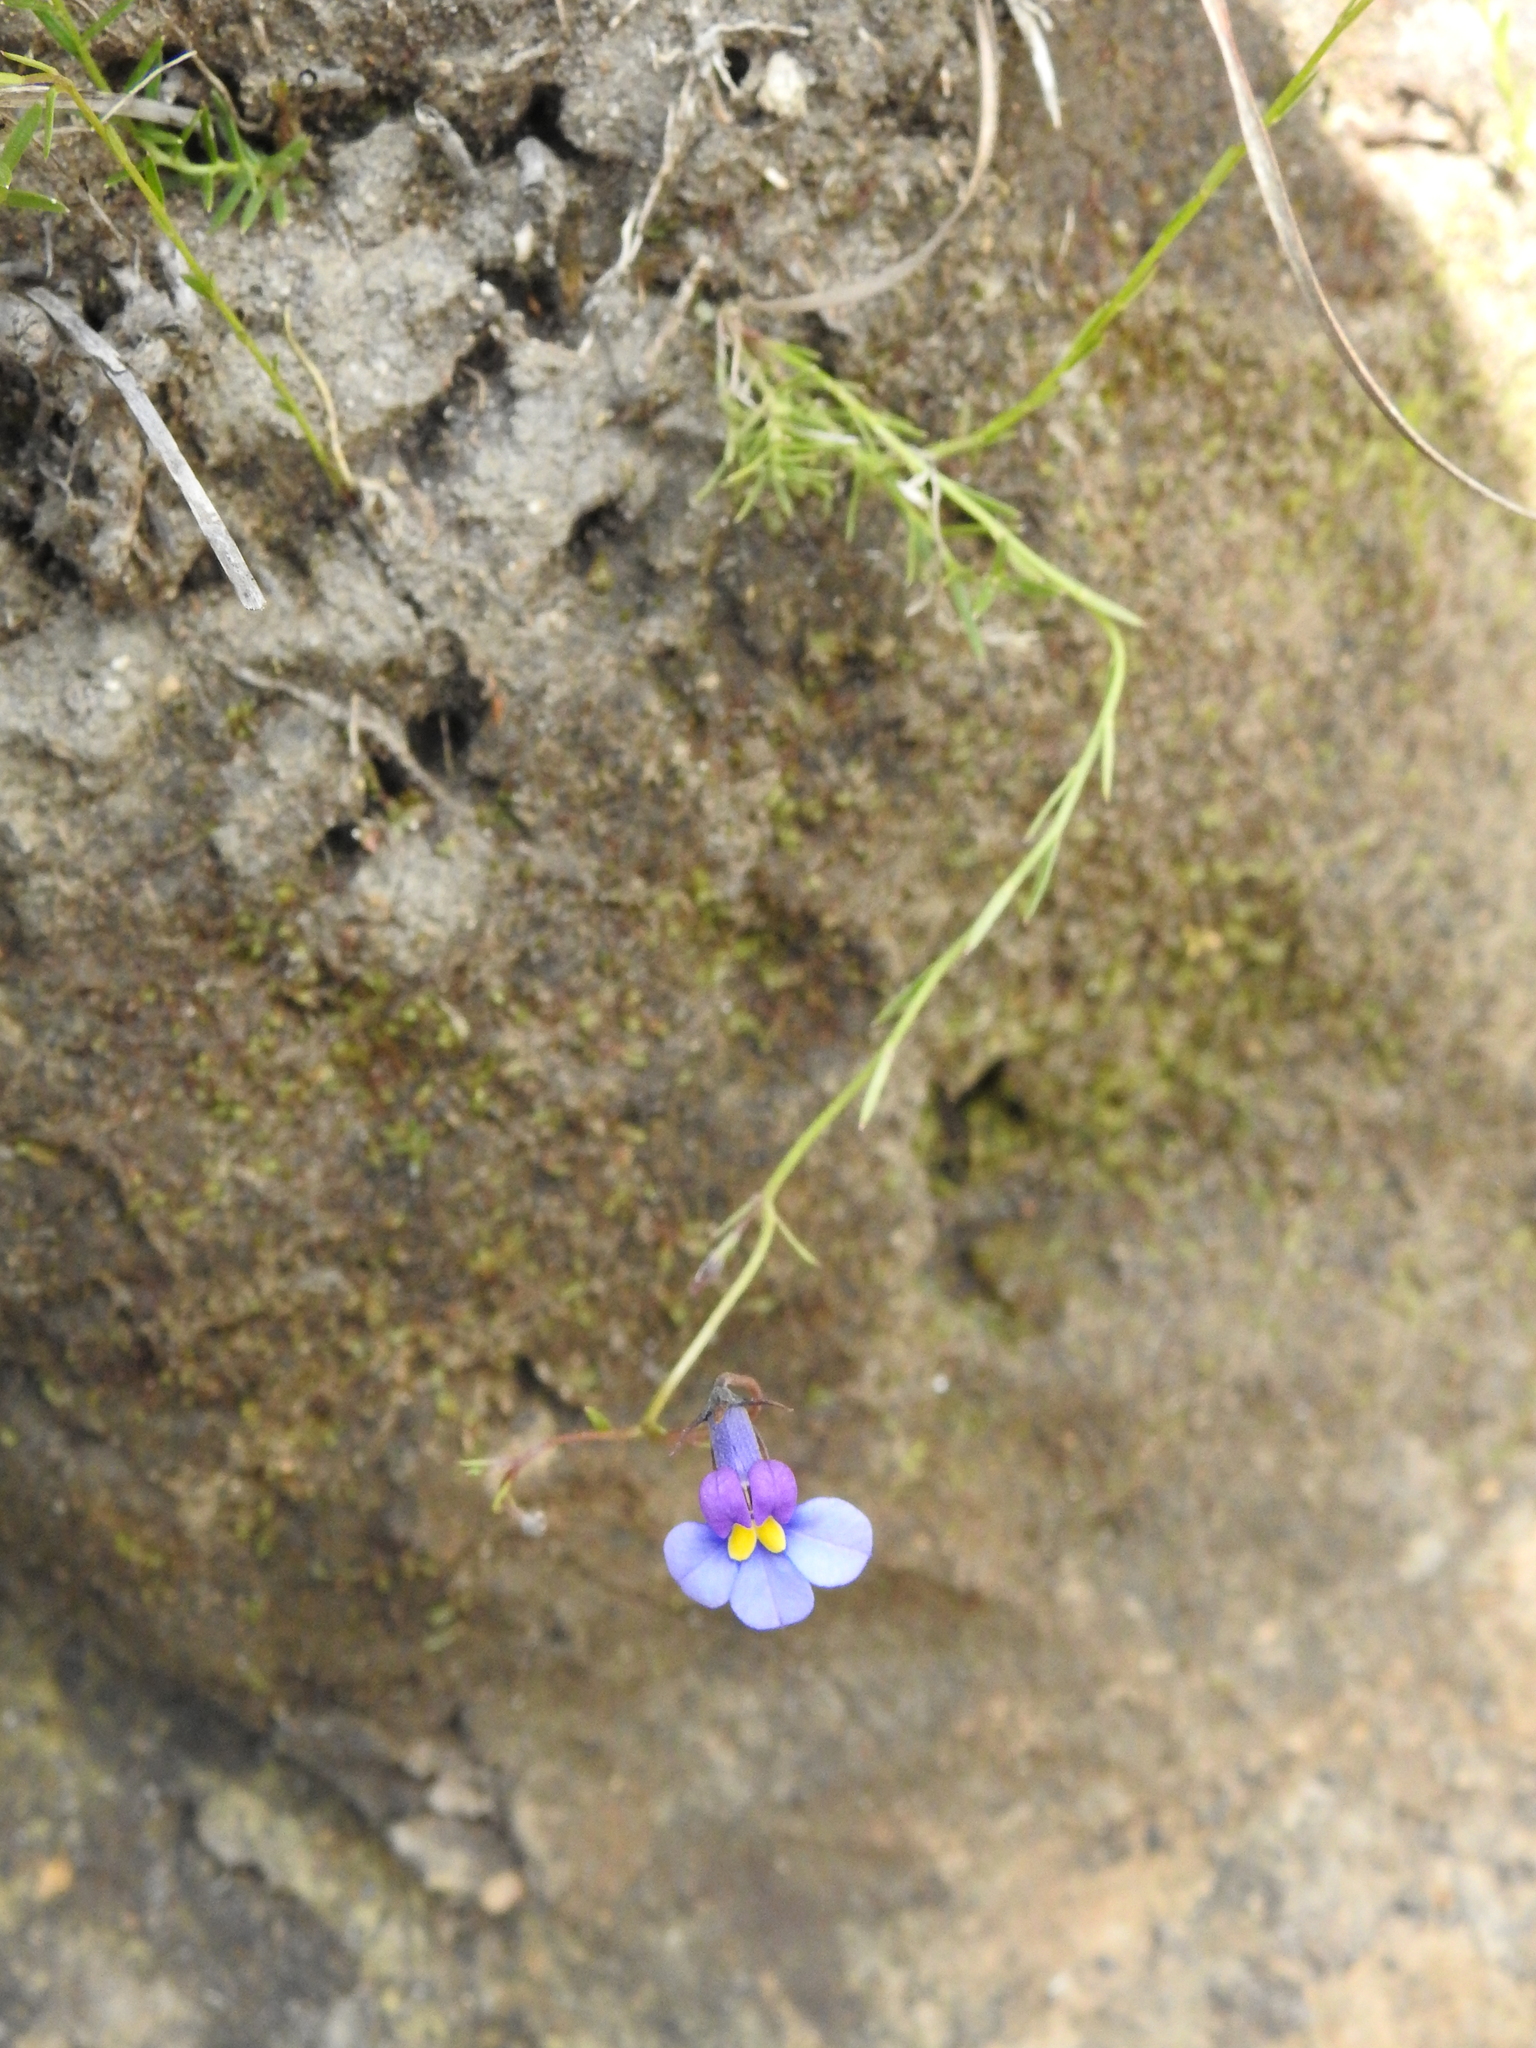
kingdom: Plantae
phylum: Tracheophyta
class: Magnoliopsida
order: Asterales
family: Campanulaceae
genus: Monopsis
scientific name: Monopsis decipiens
